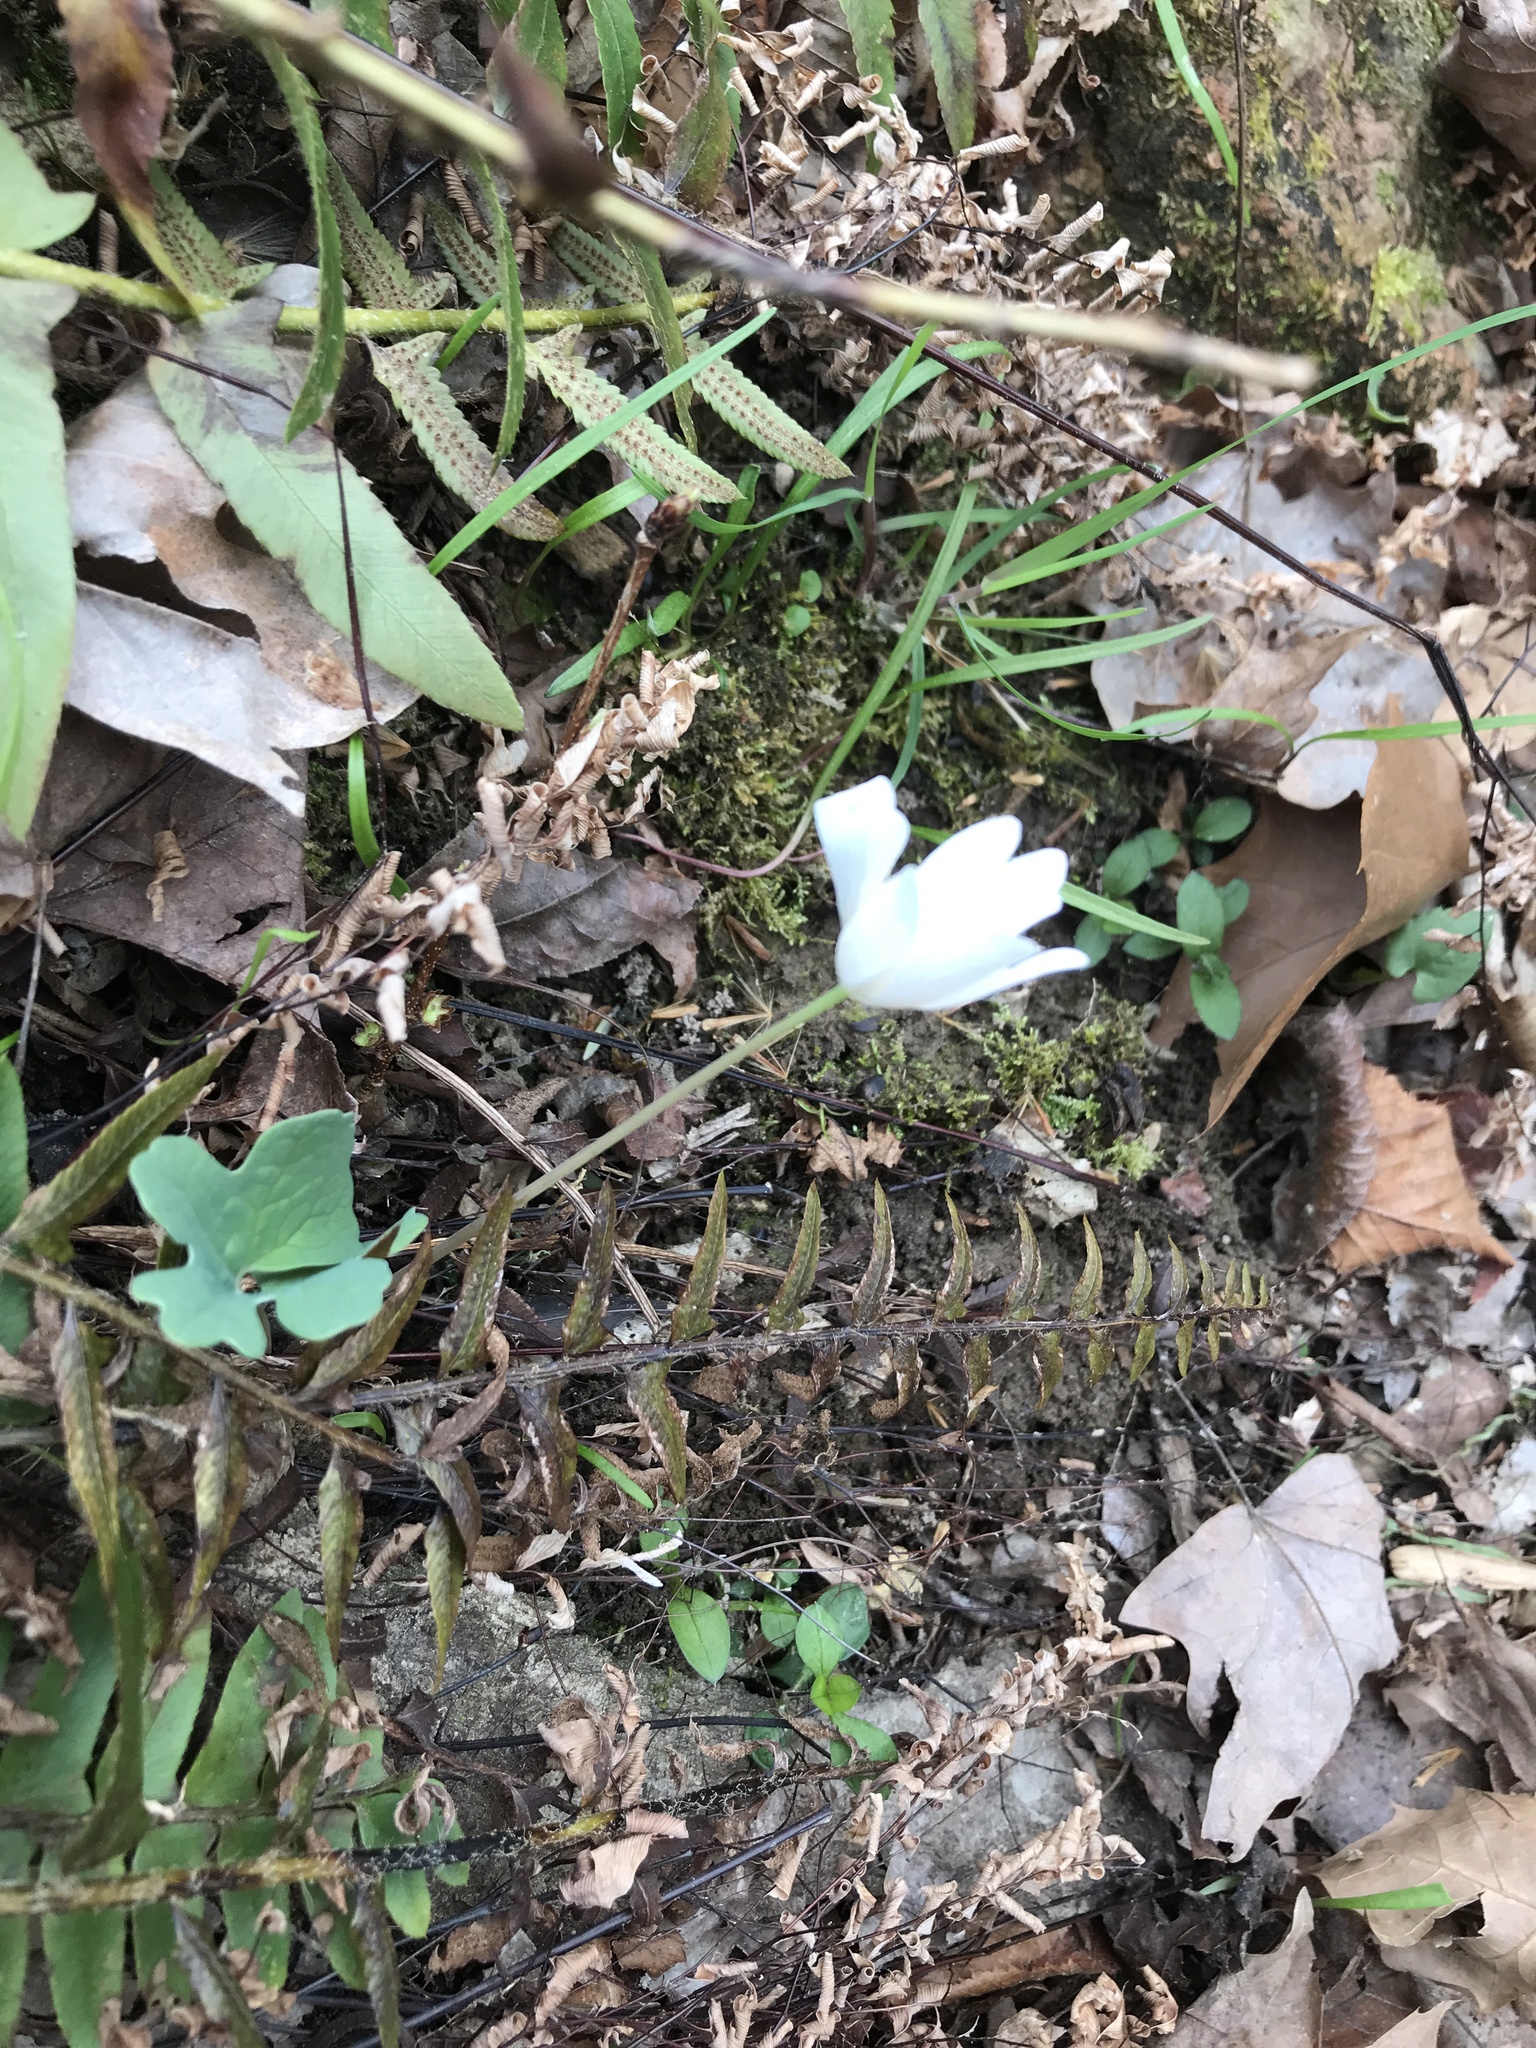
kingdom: Plantae
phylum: Tracheophyta
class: Magnoliopsida
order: Ranunculales
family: Papaveraceae
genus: Sanguinaria
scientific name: Sanguinaria canadensis
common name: Bloodroot
